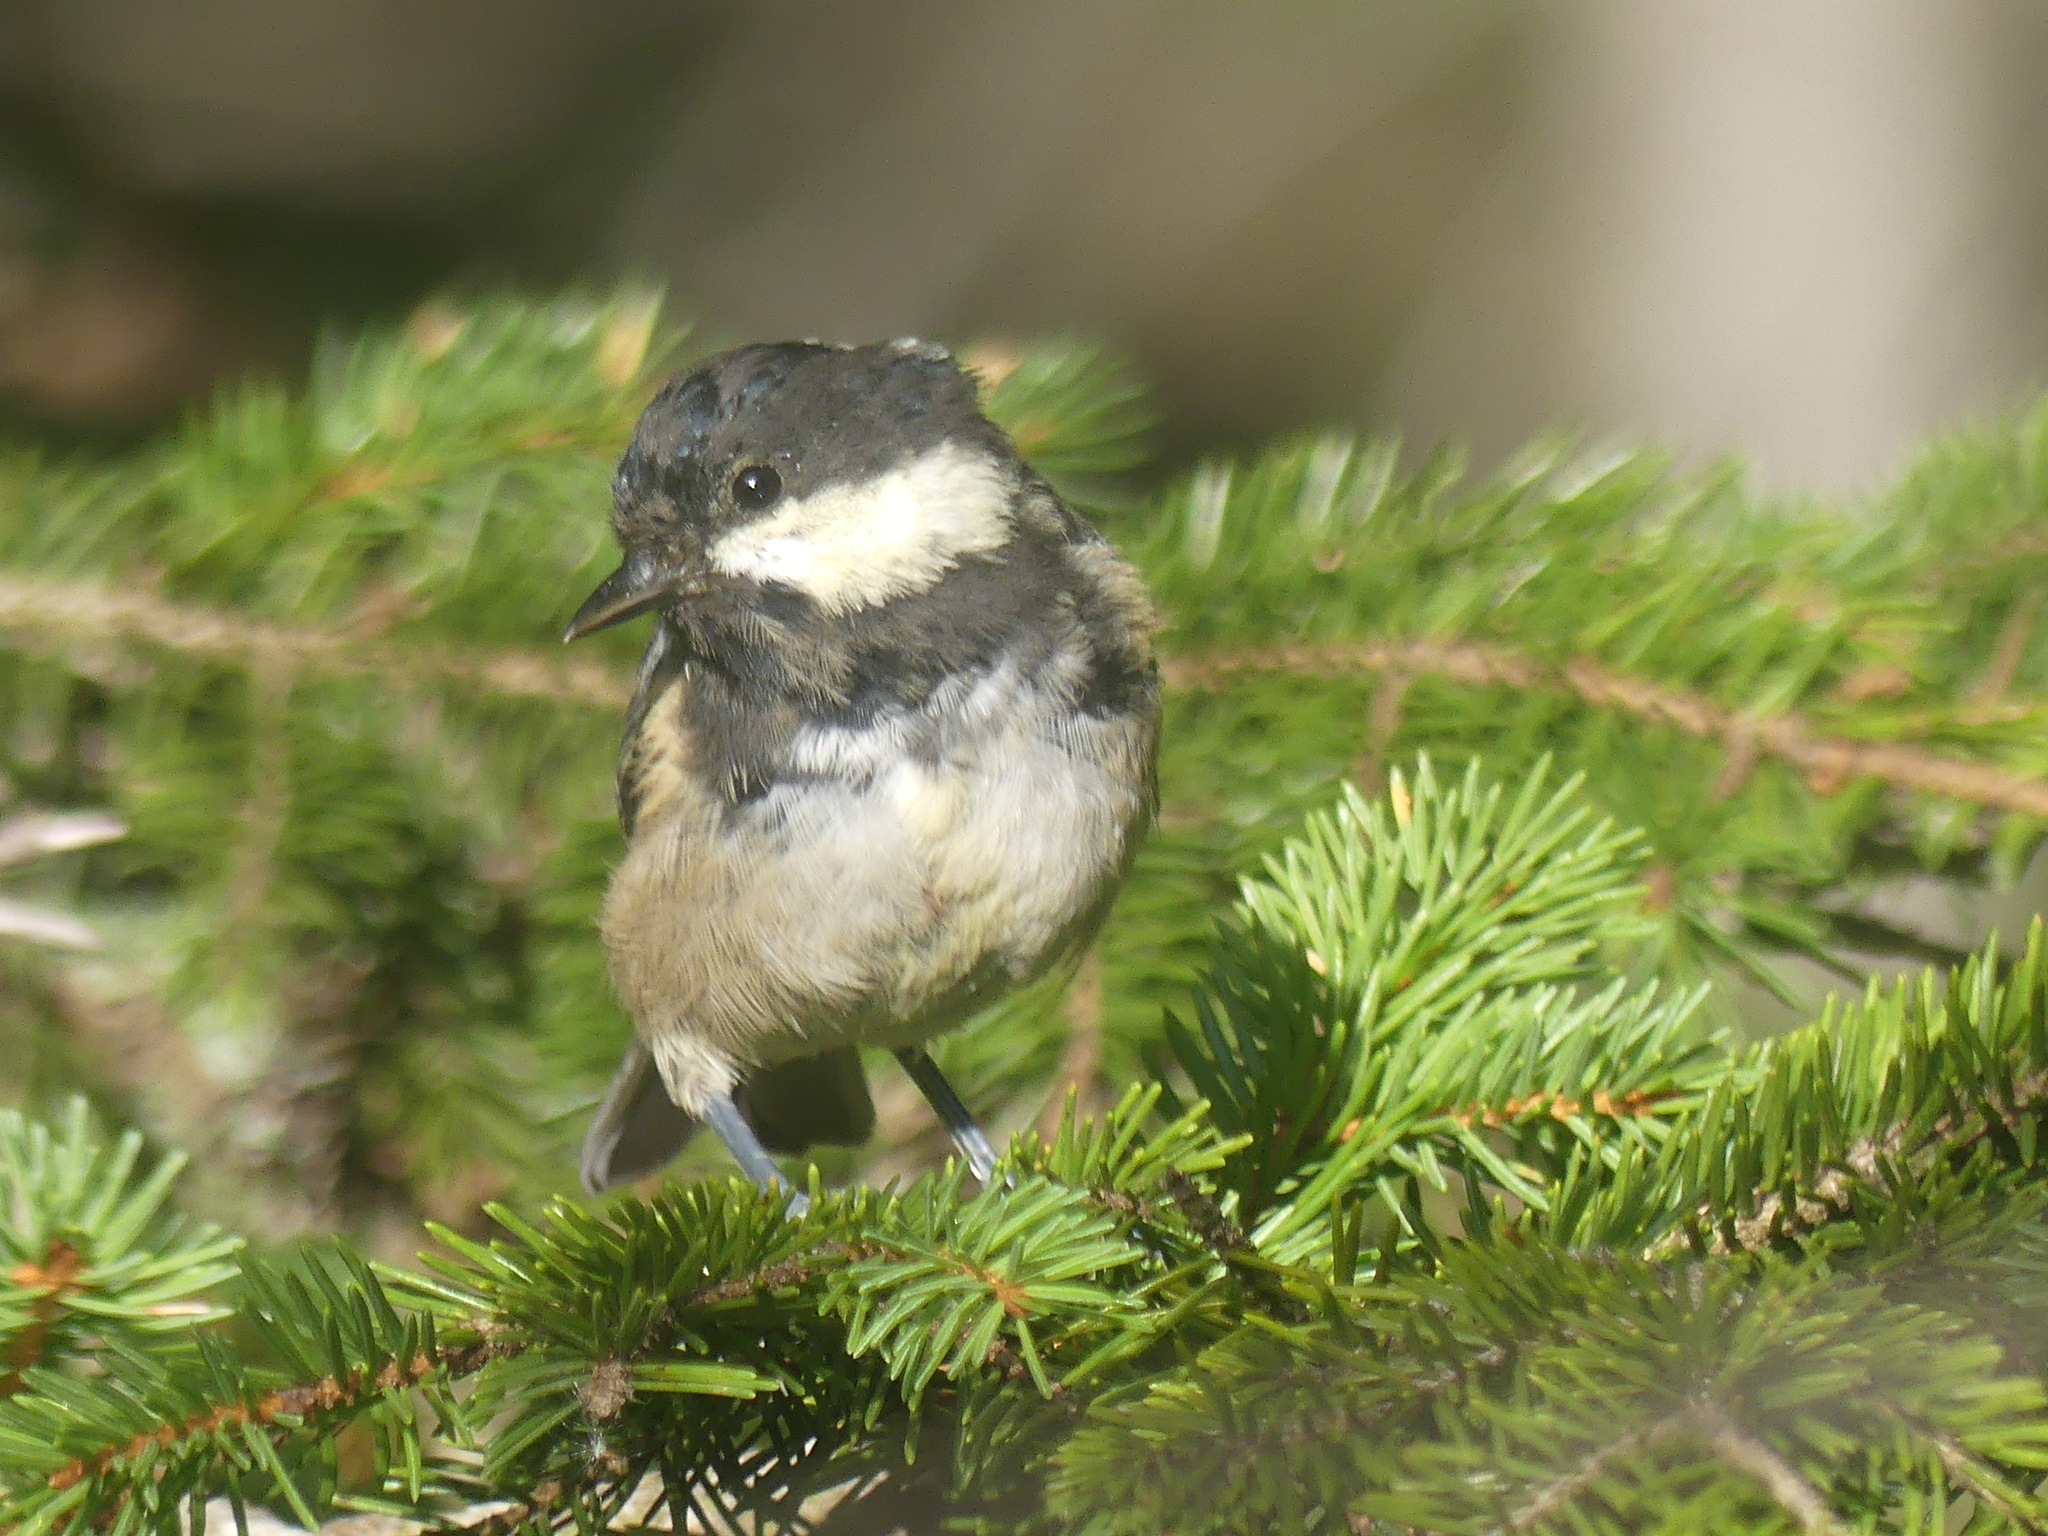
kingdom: Animalia
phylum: Chordata
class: Aves
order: Passeriformes
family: Paridae
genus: Periparus
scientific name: Periparus ater
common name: Coal tit
